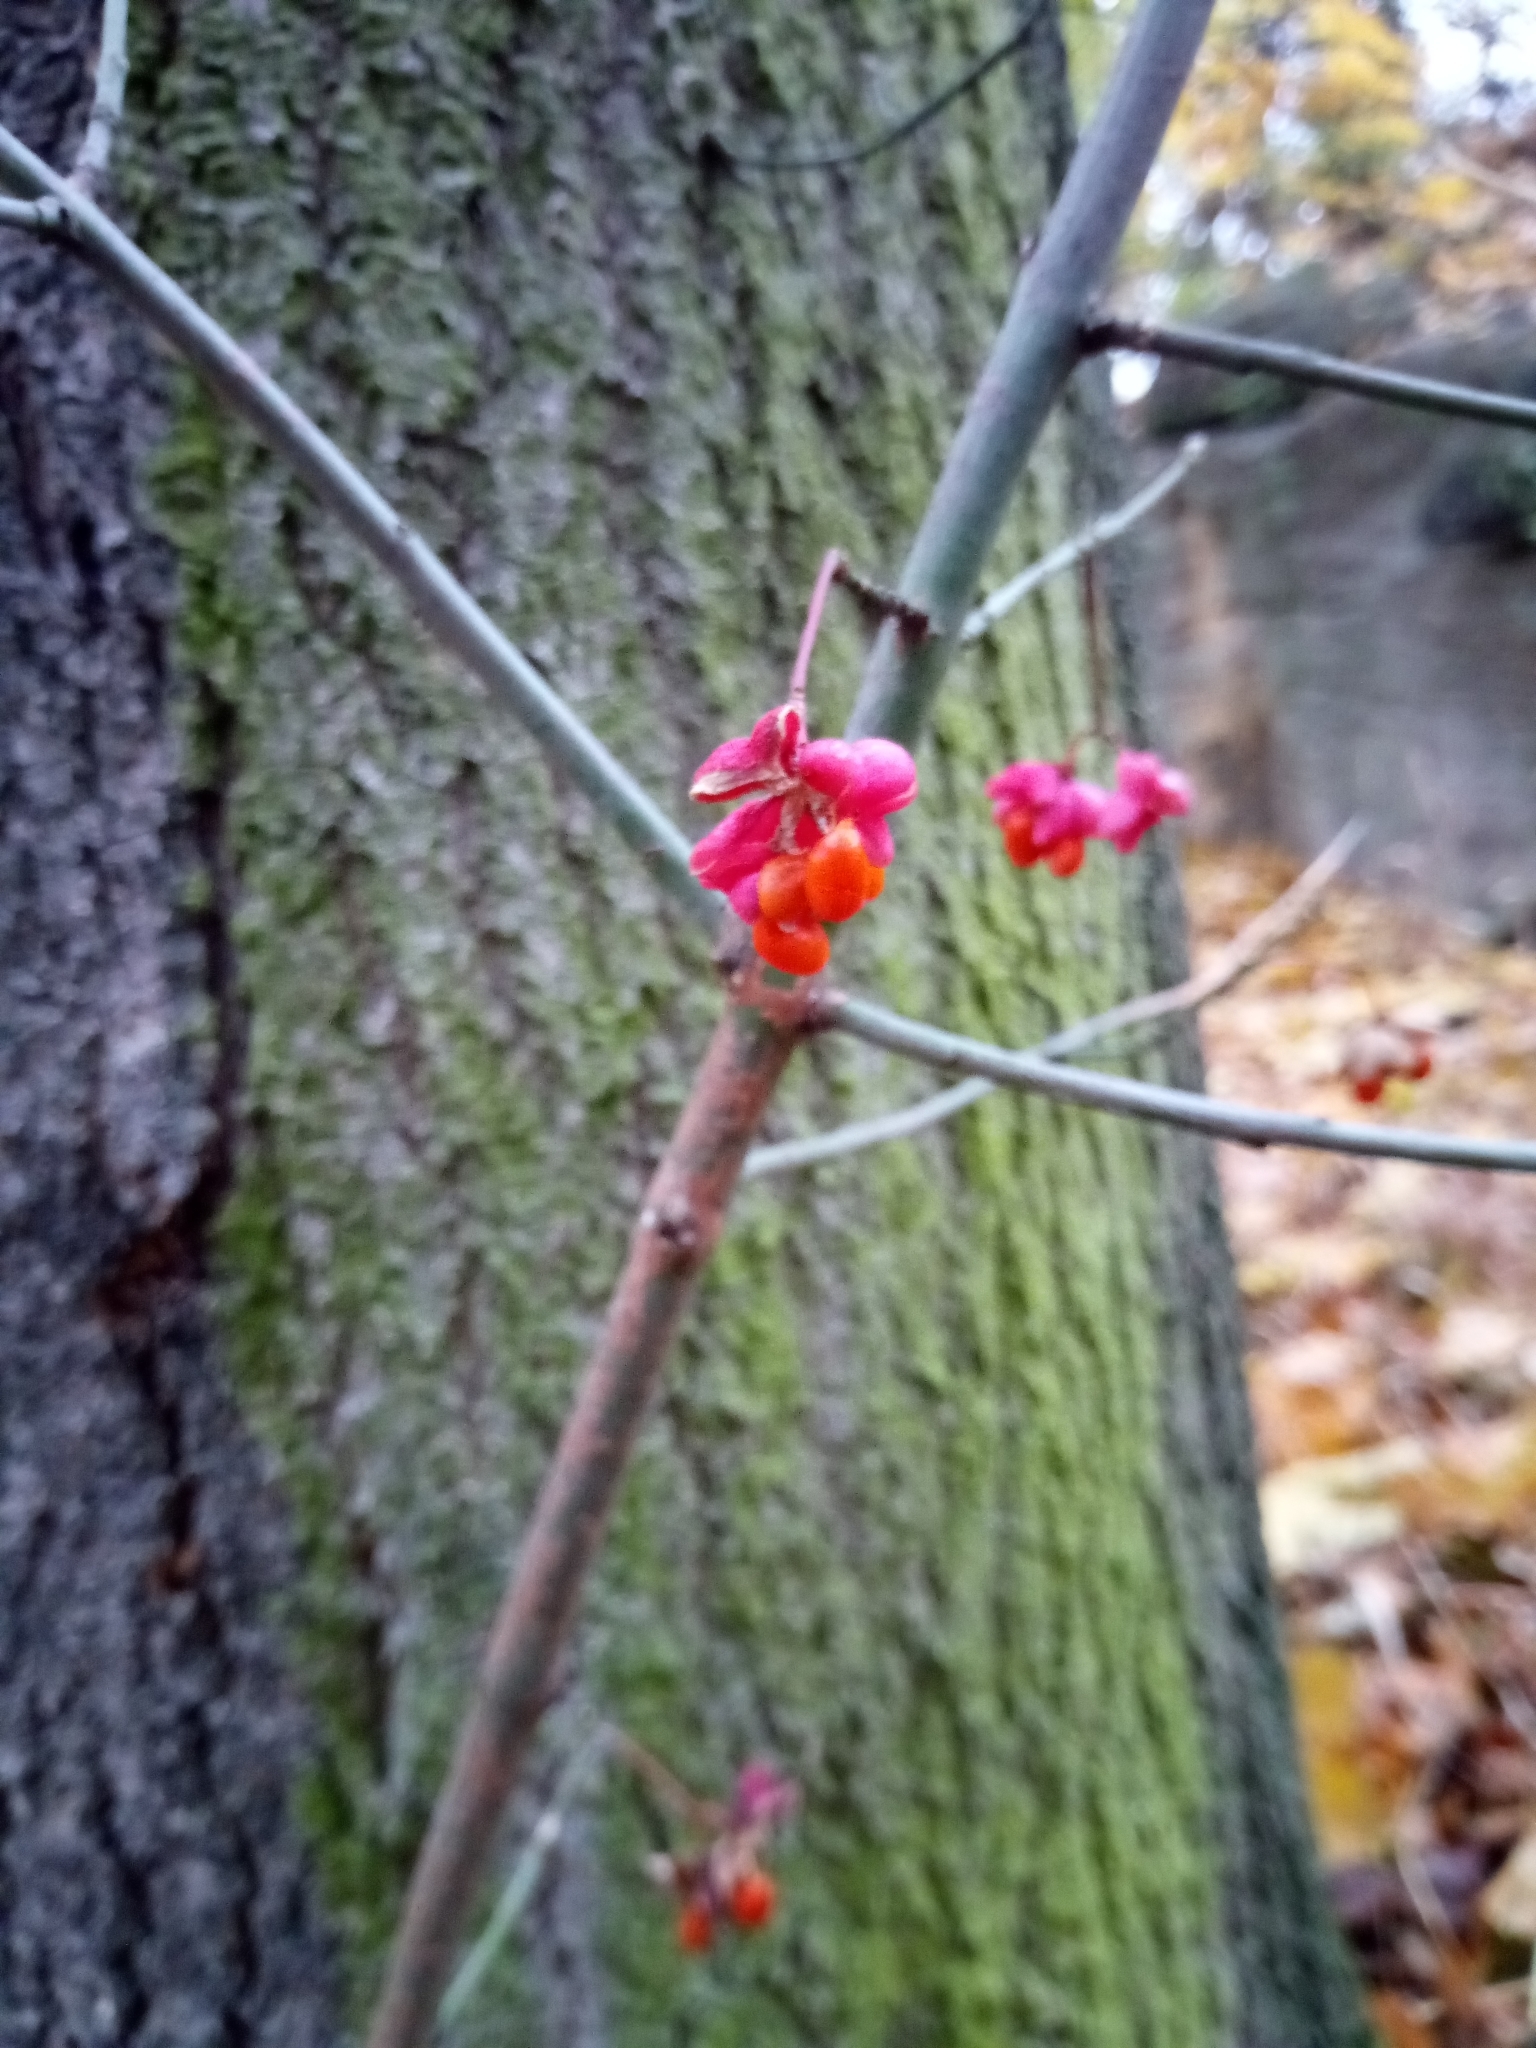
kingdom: Plantae
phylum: Tracheophyta
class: Magnoliopsida
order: Celastrales
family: Celastraceae
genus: Euonymus
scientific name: Euonymus europaeus
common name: Spindle
